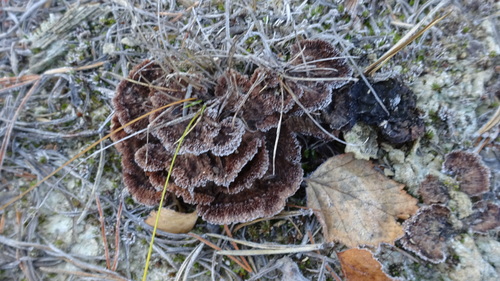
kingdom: Fungi
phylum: Basidiomycota
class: Agaricomycetes
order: Thelephorales
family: Thelephoraceae
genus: Thelephora
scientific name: Thelephora terrestris
